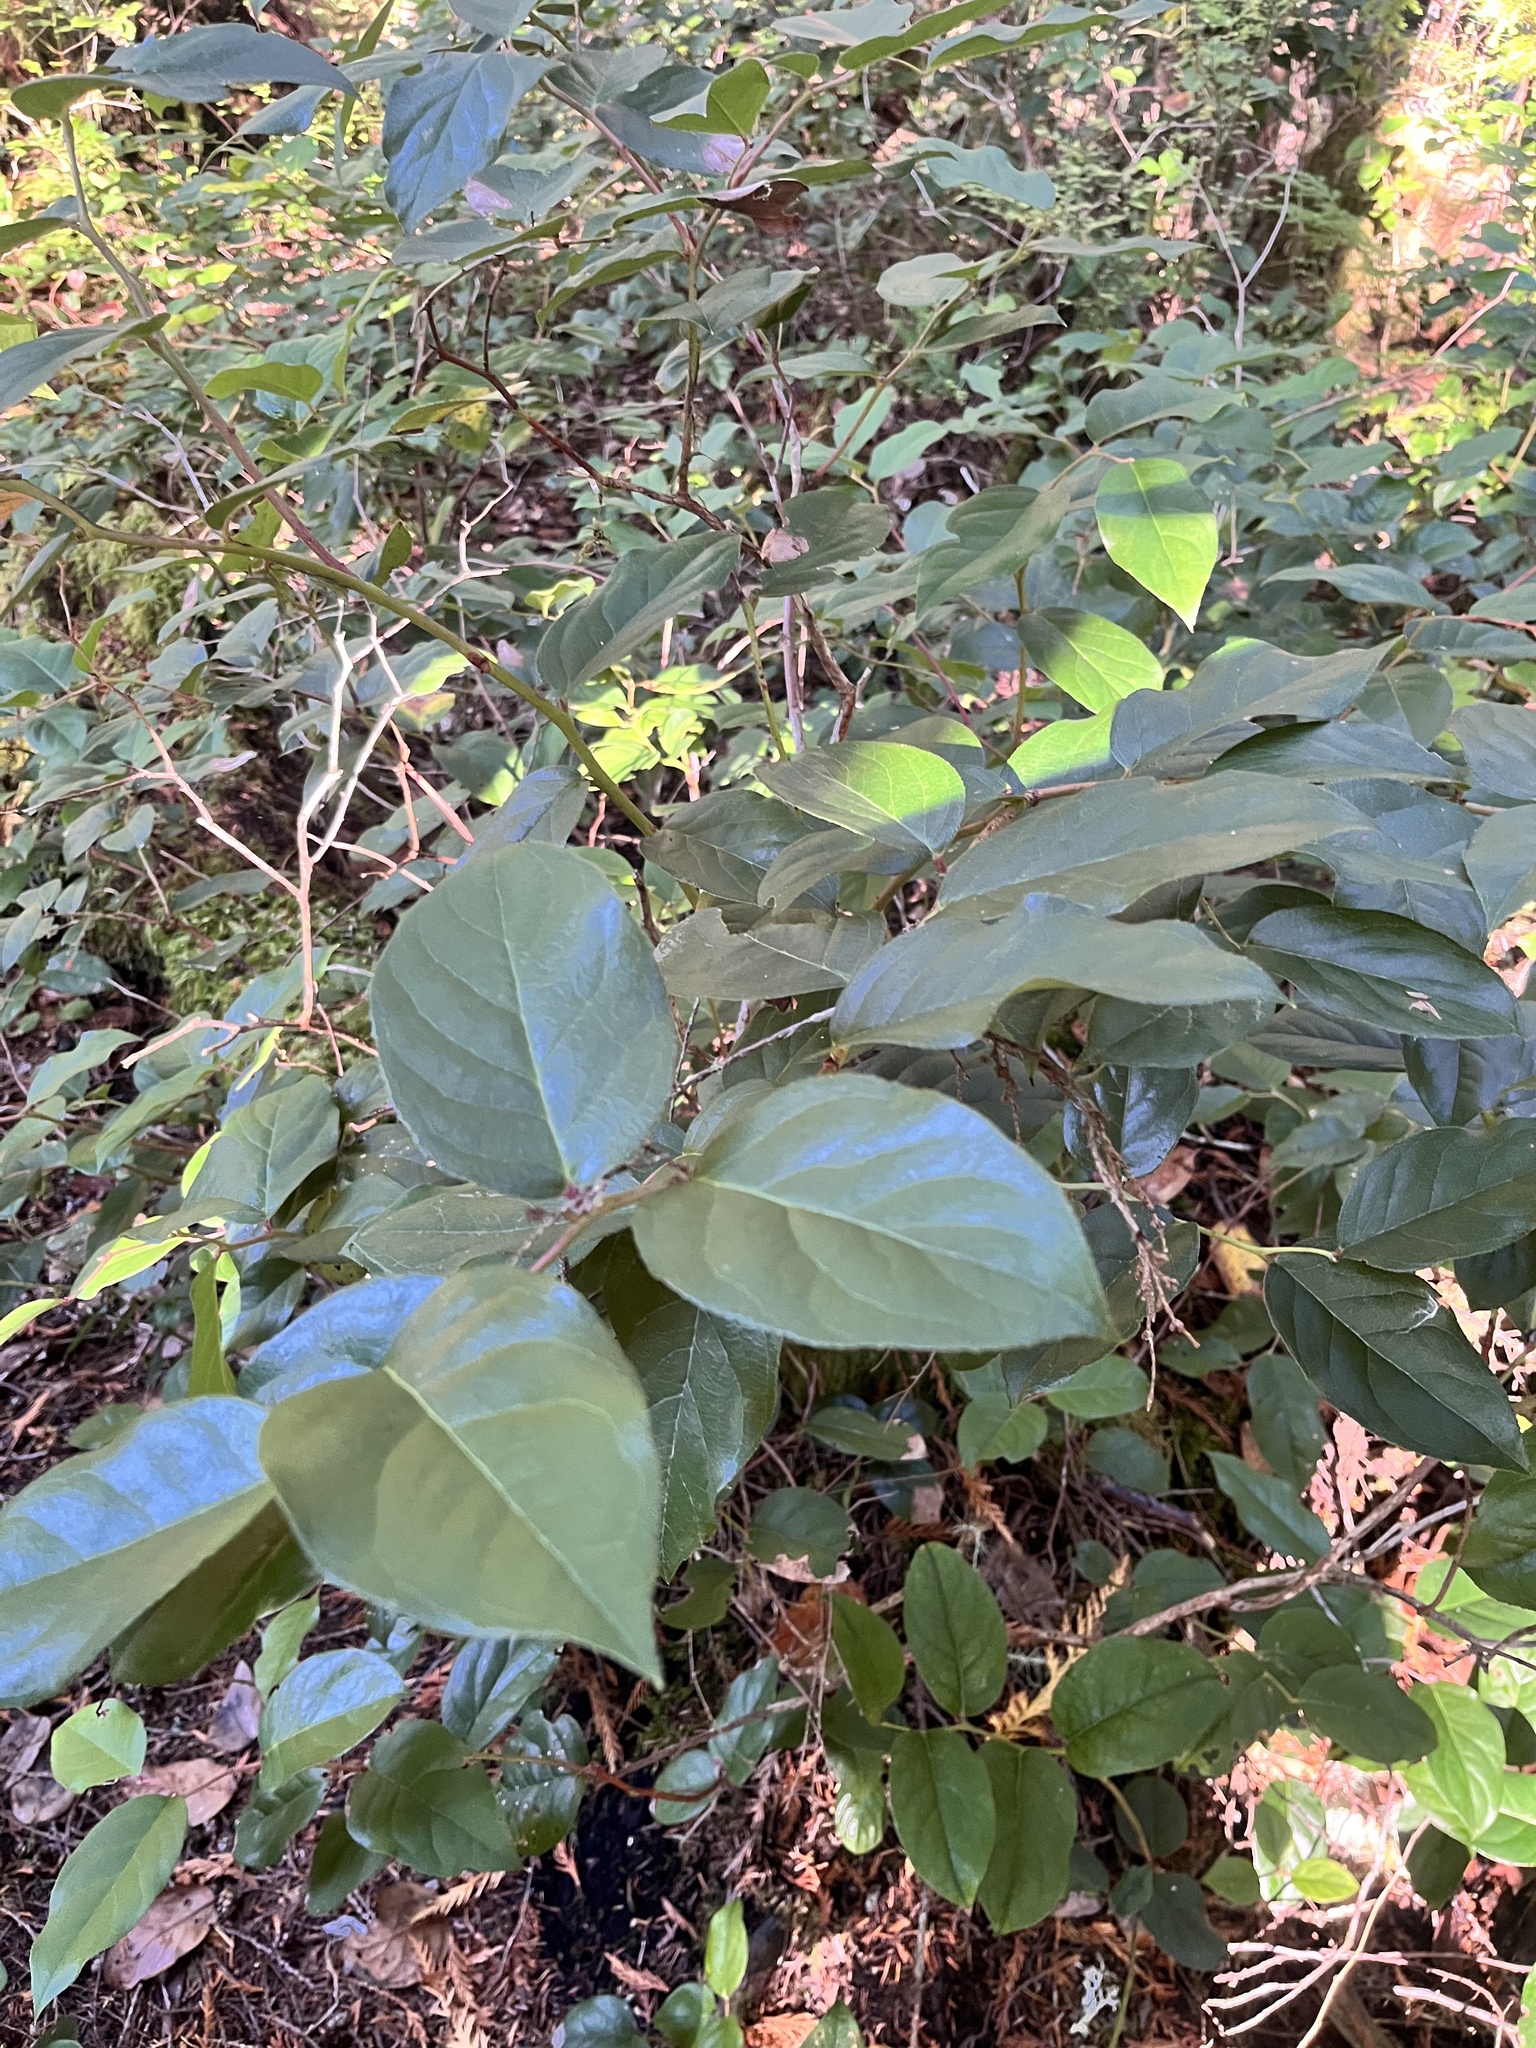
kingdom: Plantae
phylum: Tracheophyta
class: Magnoliopsida
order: Ericales
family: Ericaceae
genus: Gaultheria
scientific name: Gaultheria shallon
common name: Shallon
